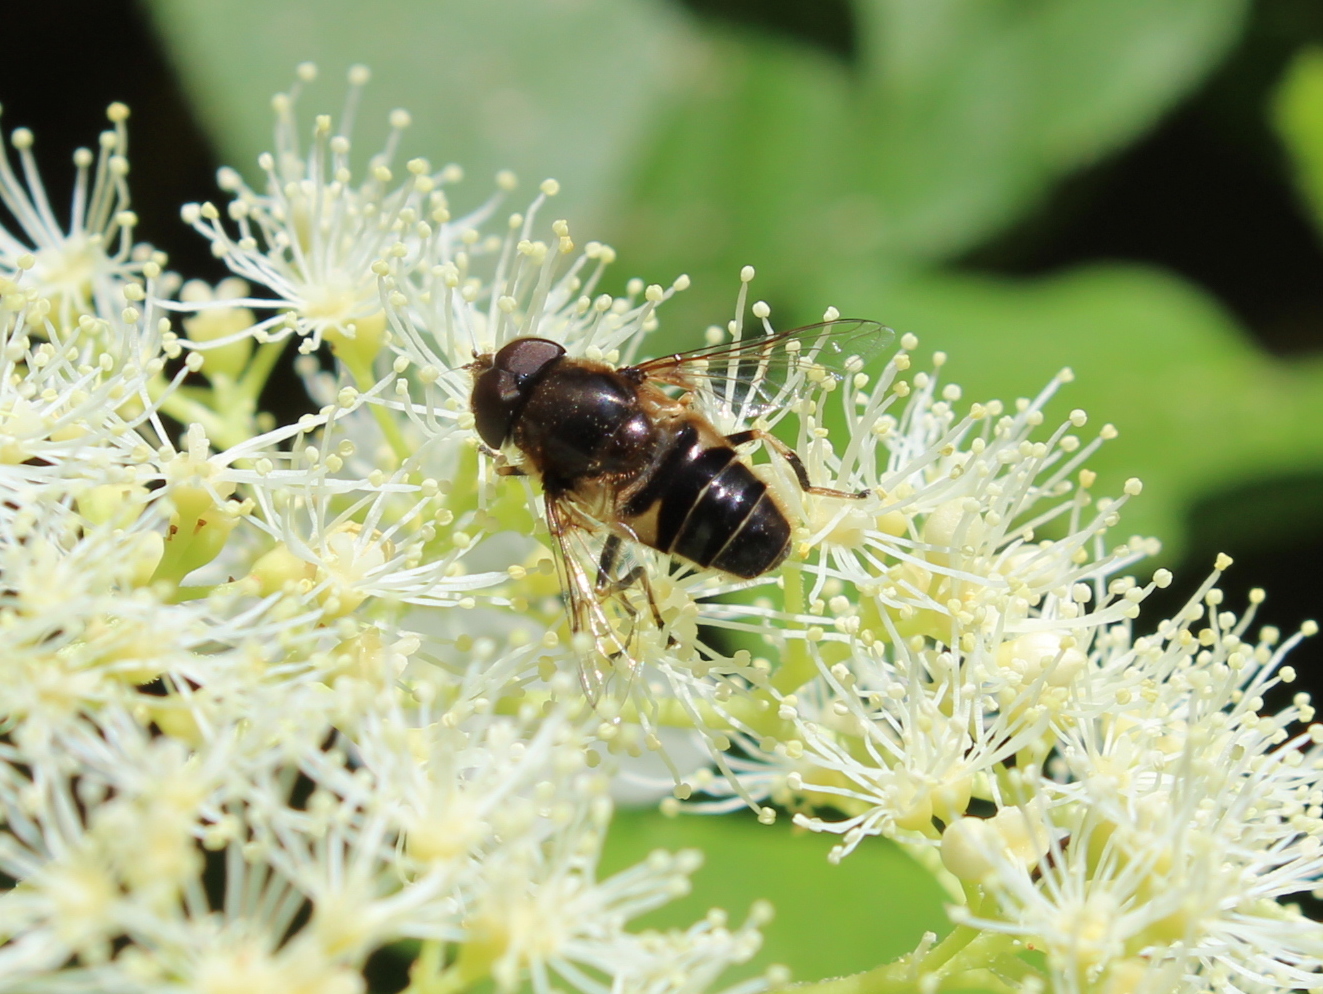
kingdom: Animalia
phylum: Arthropoda
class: Insecta
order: Diptera
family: Syrphidae
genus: Eristalis
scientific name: Eristalis obscura
